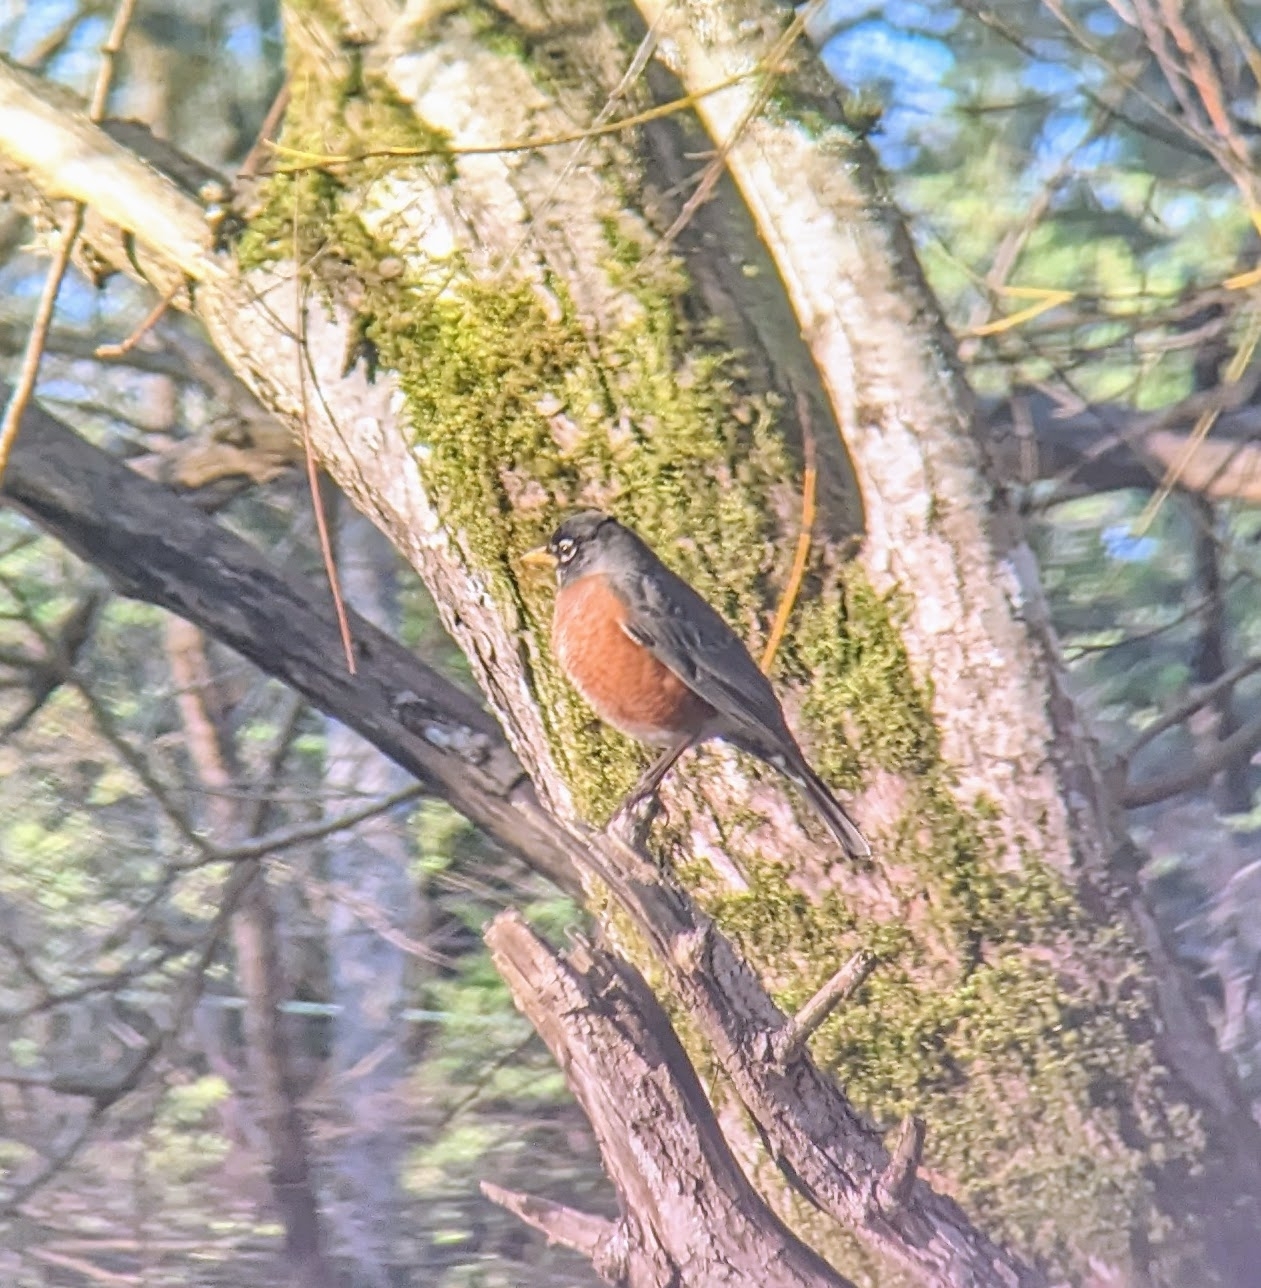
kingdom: Animalia
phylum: Chordata
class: Aves
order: Passeriformes
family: Turdidae
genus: Turdus
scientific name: Turdus migratorius
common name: American robin
